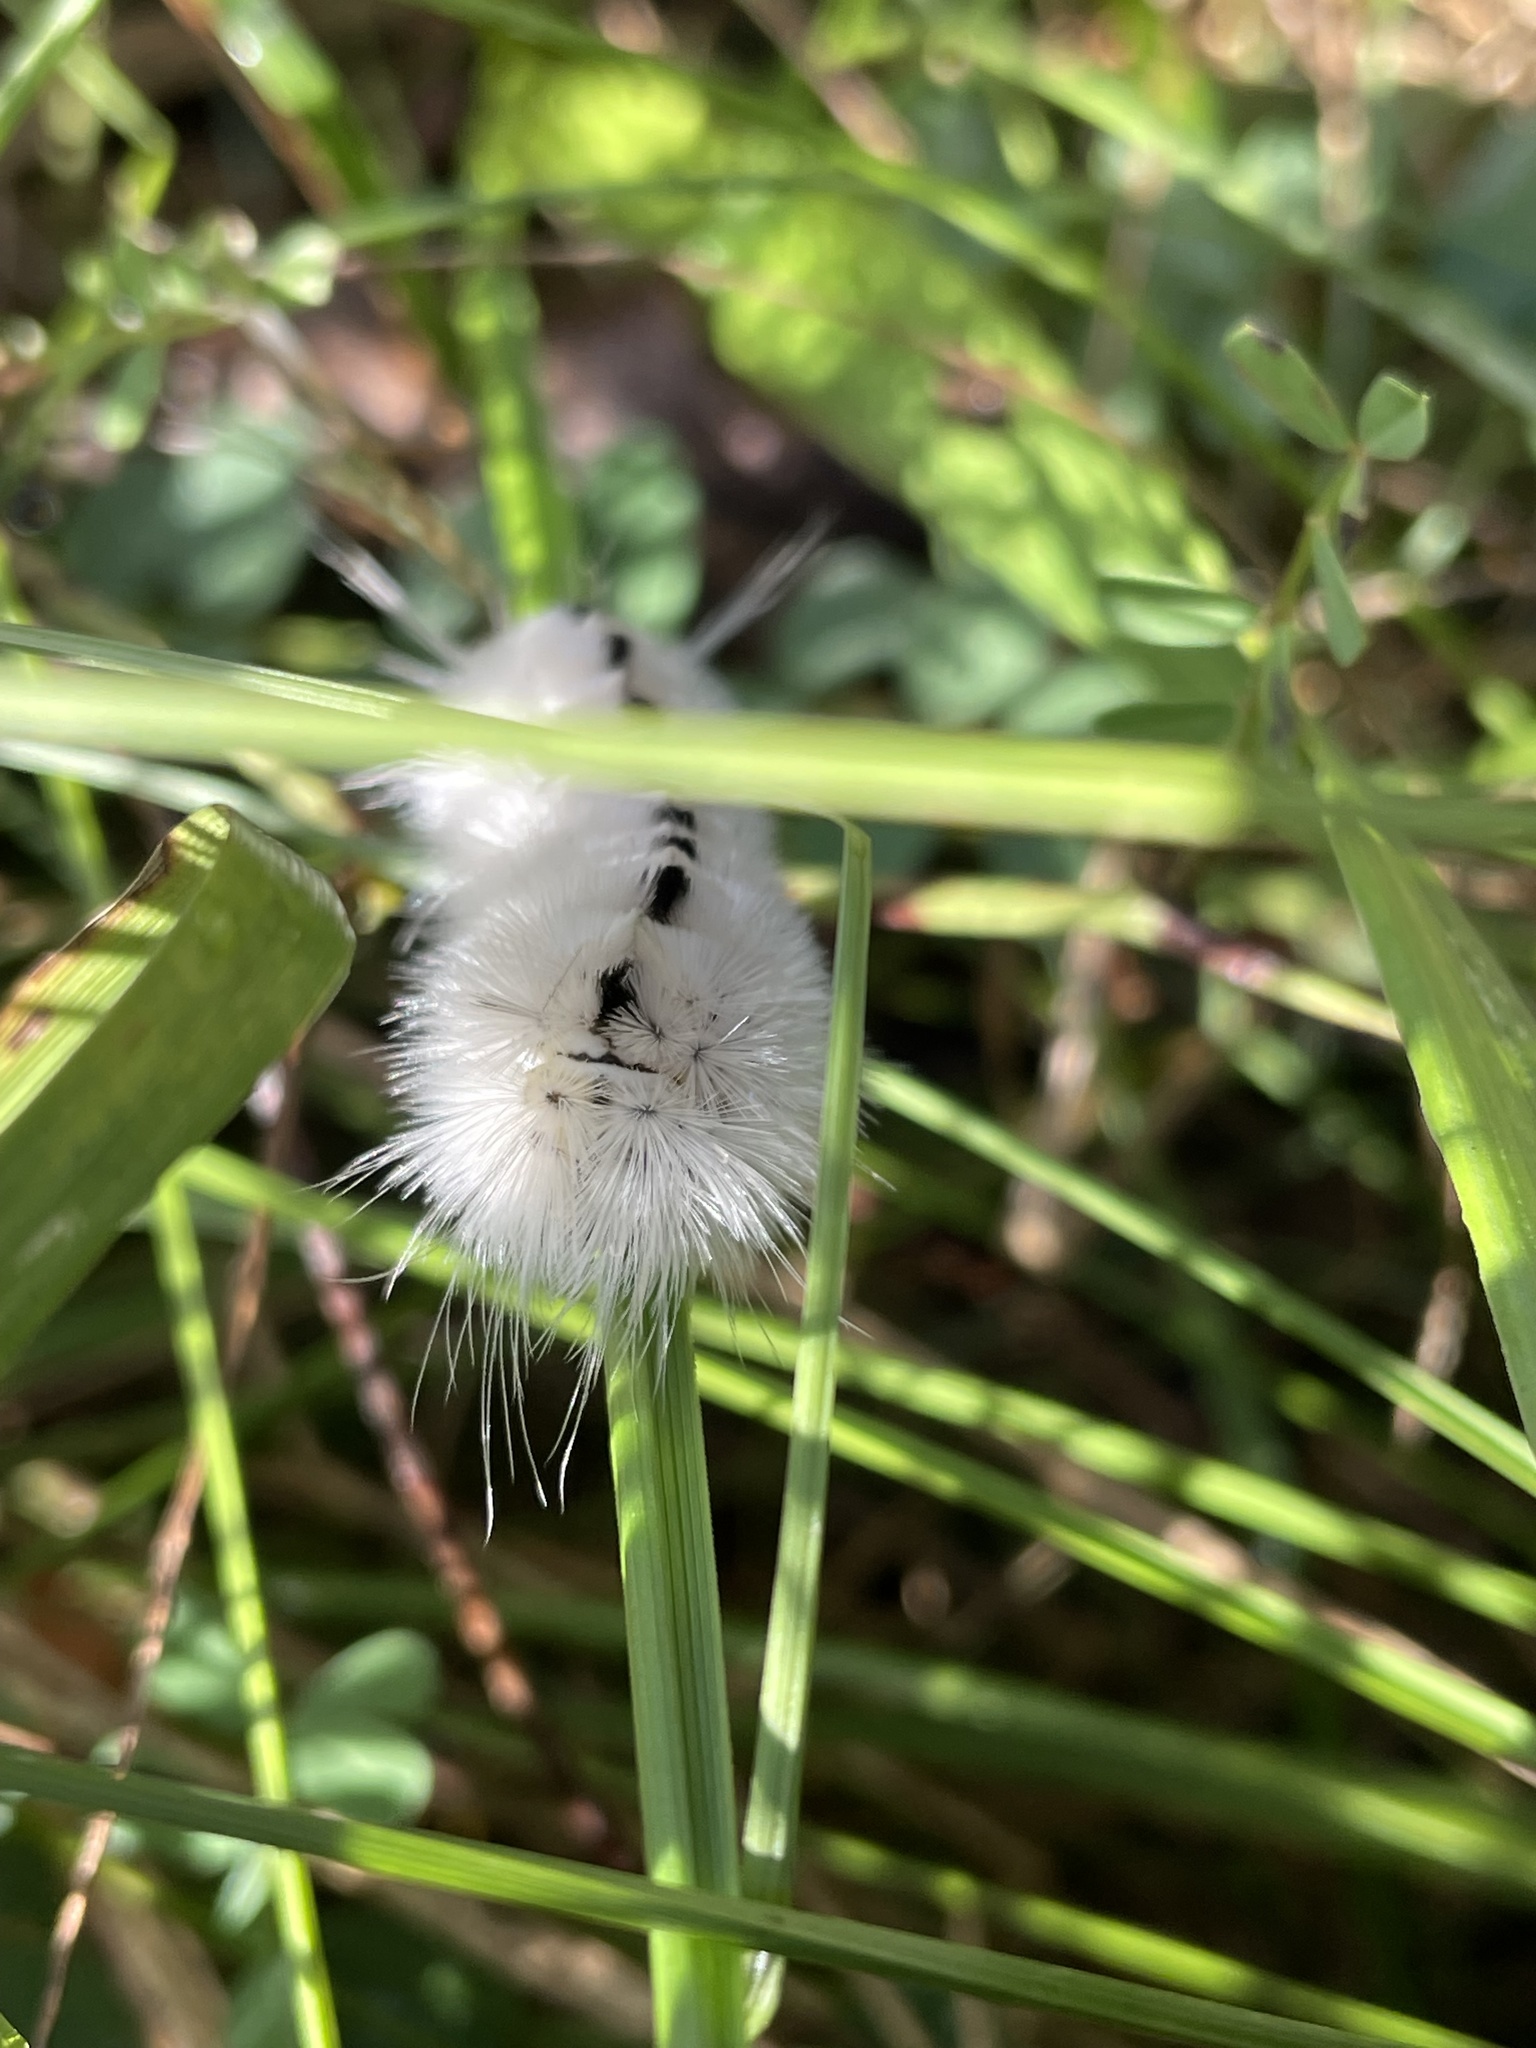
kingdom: Animalia
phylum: Arthropoda
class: Insecta
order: Lepidoptera
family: Erebidae
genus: Lophocampa
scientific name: Lophocampa caryae
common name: Hickory tussock moth
